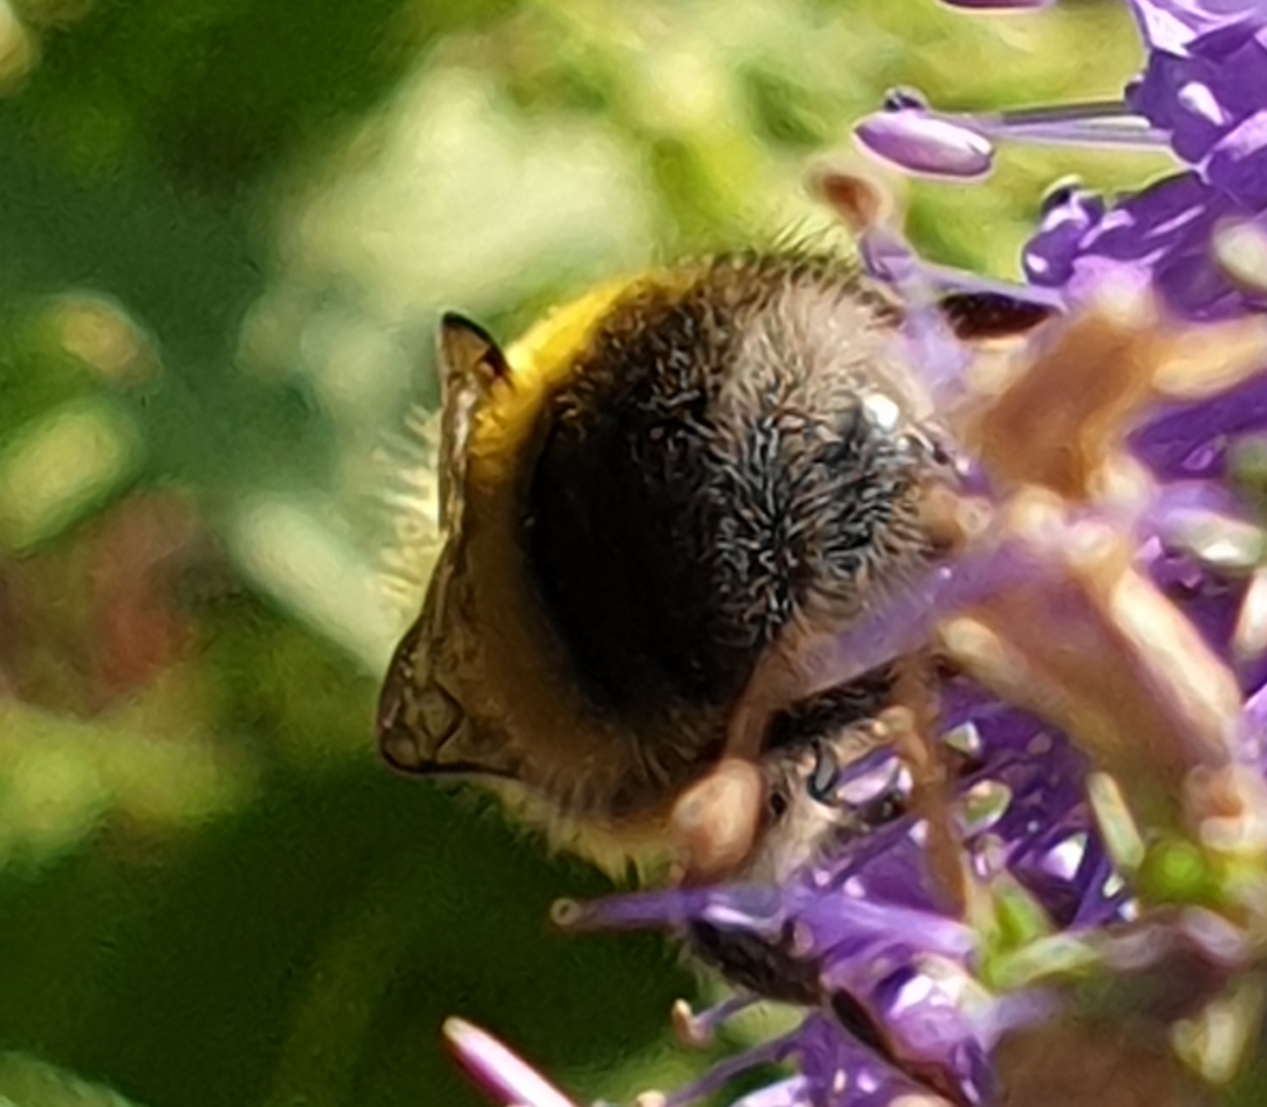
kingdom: Animalia
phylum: Arthropoda
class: Insecta
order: Hymenoptera
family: Apidae
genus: Bombus
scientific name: Bombus lucorum
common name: White-tailed bumblebee
